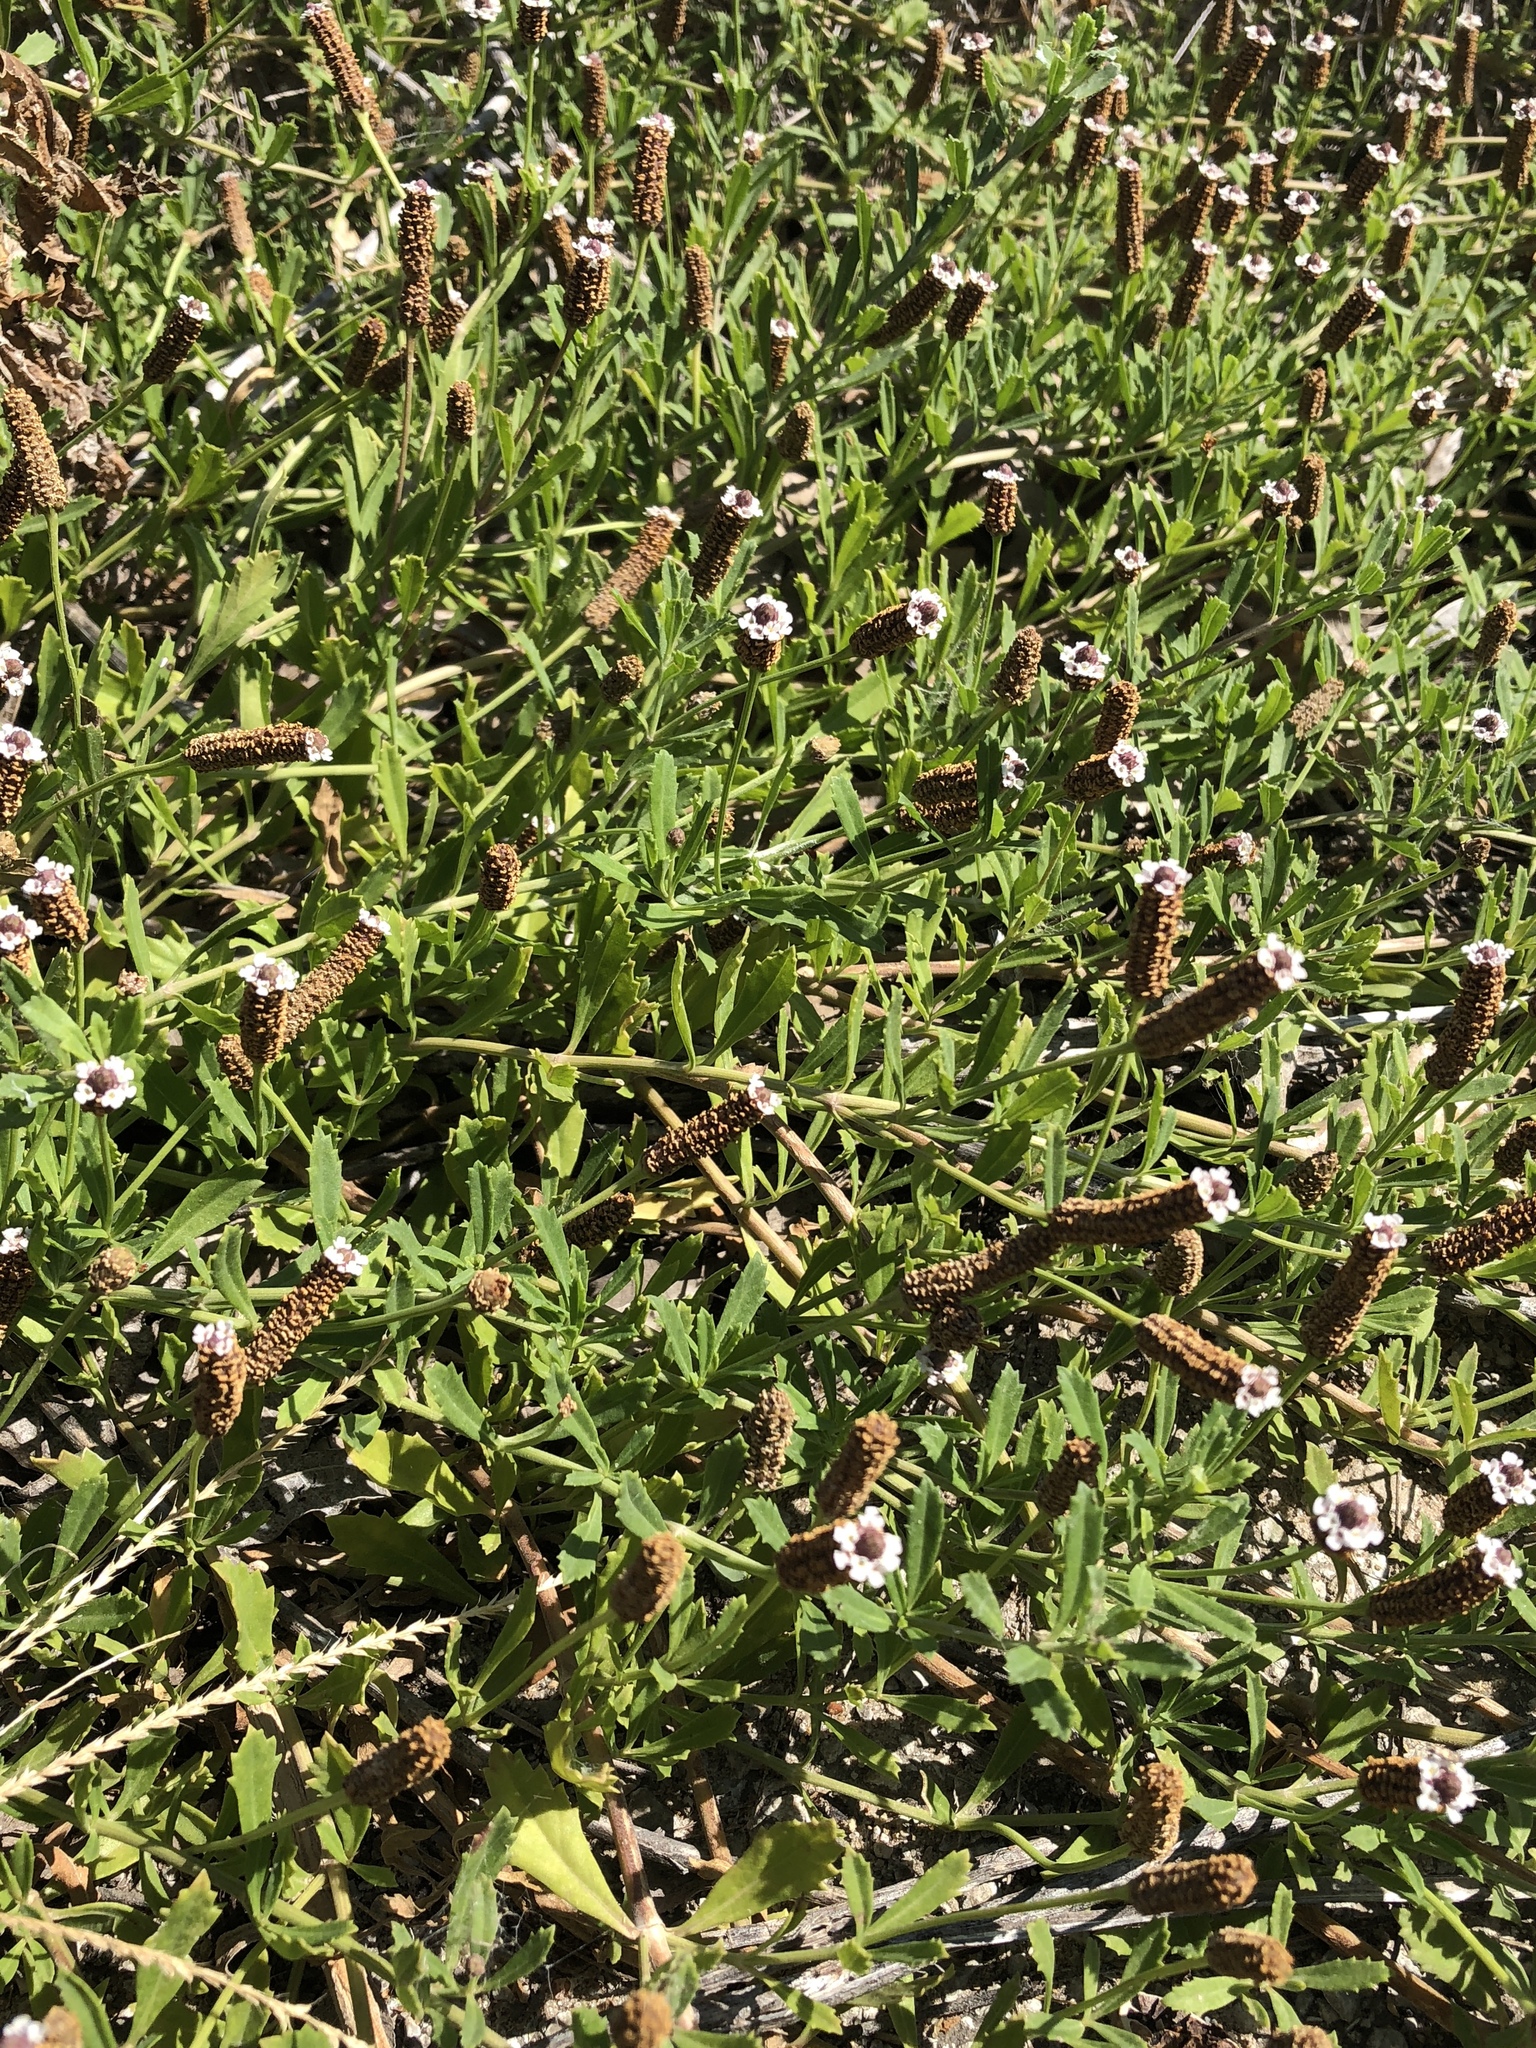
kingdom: Plantae
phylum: Tracheophyta
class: Magnoliopsida
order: Lamiales
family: Verbenaceae
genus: Phyla
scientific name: Phyla nodiflora
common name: Frogfruit
